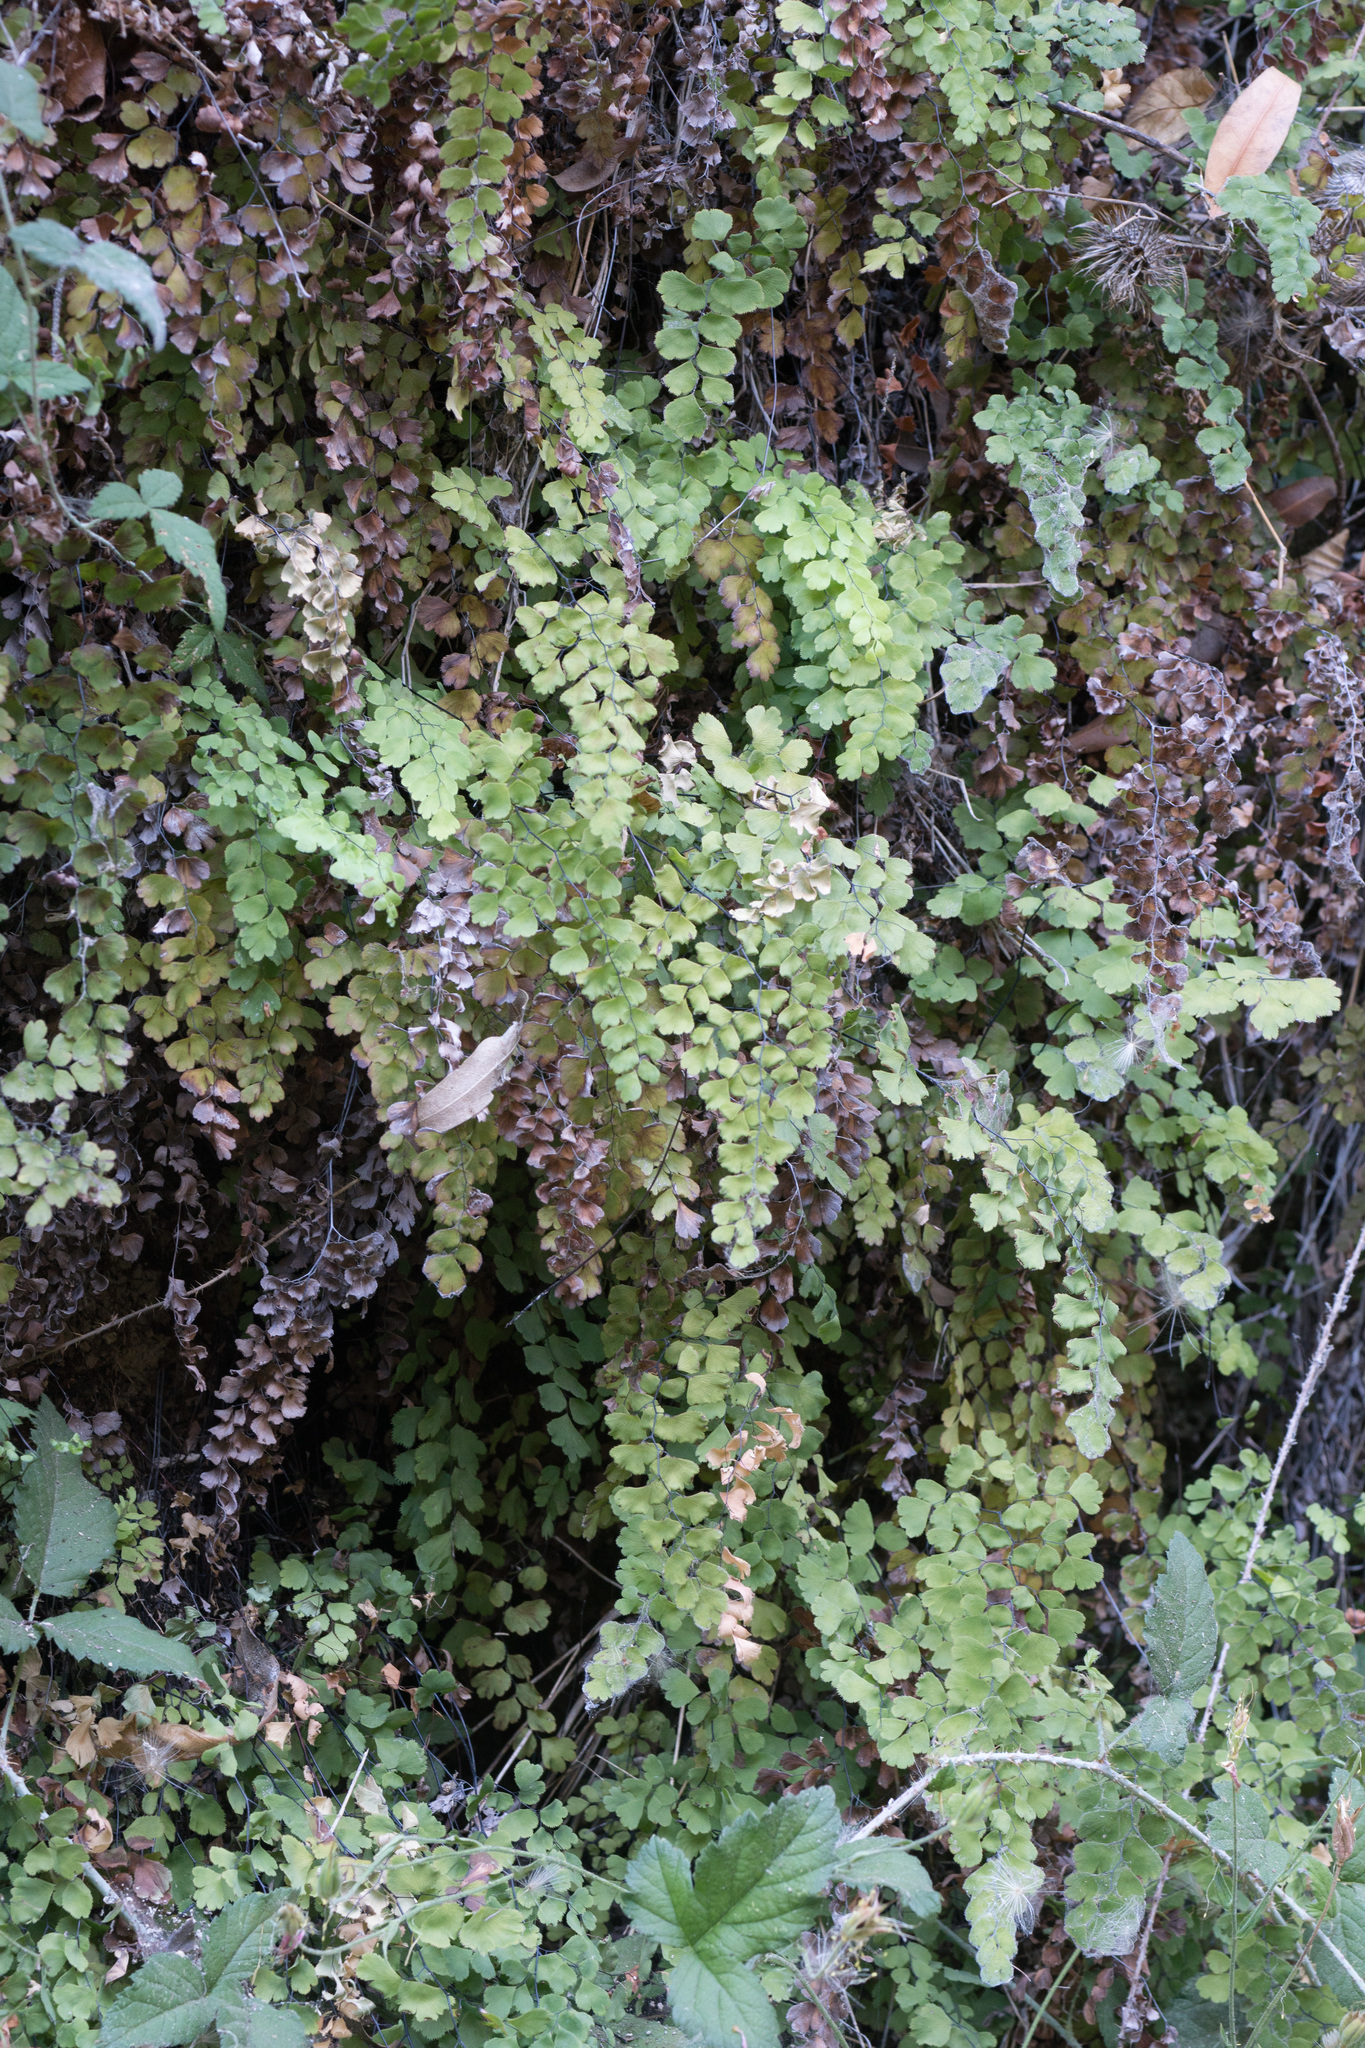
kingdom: Plantae
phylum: Tracheophyta
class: Polypodiopsida
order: Polypodiales
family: Pteridaceae
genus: Adiantum
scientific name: Adiantum capillus-veneris
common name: Maidenhair fern
